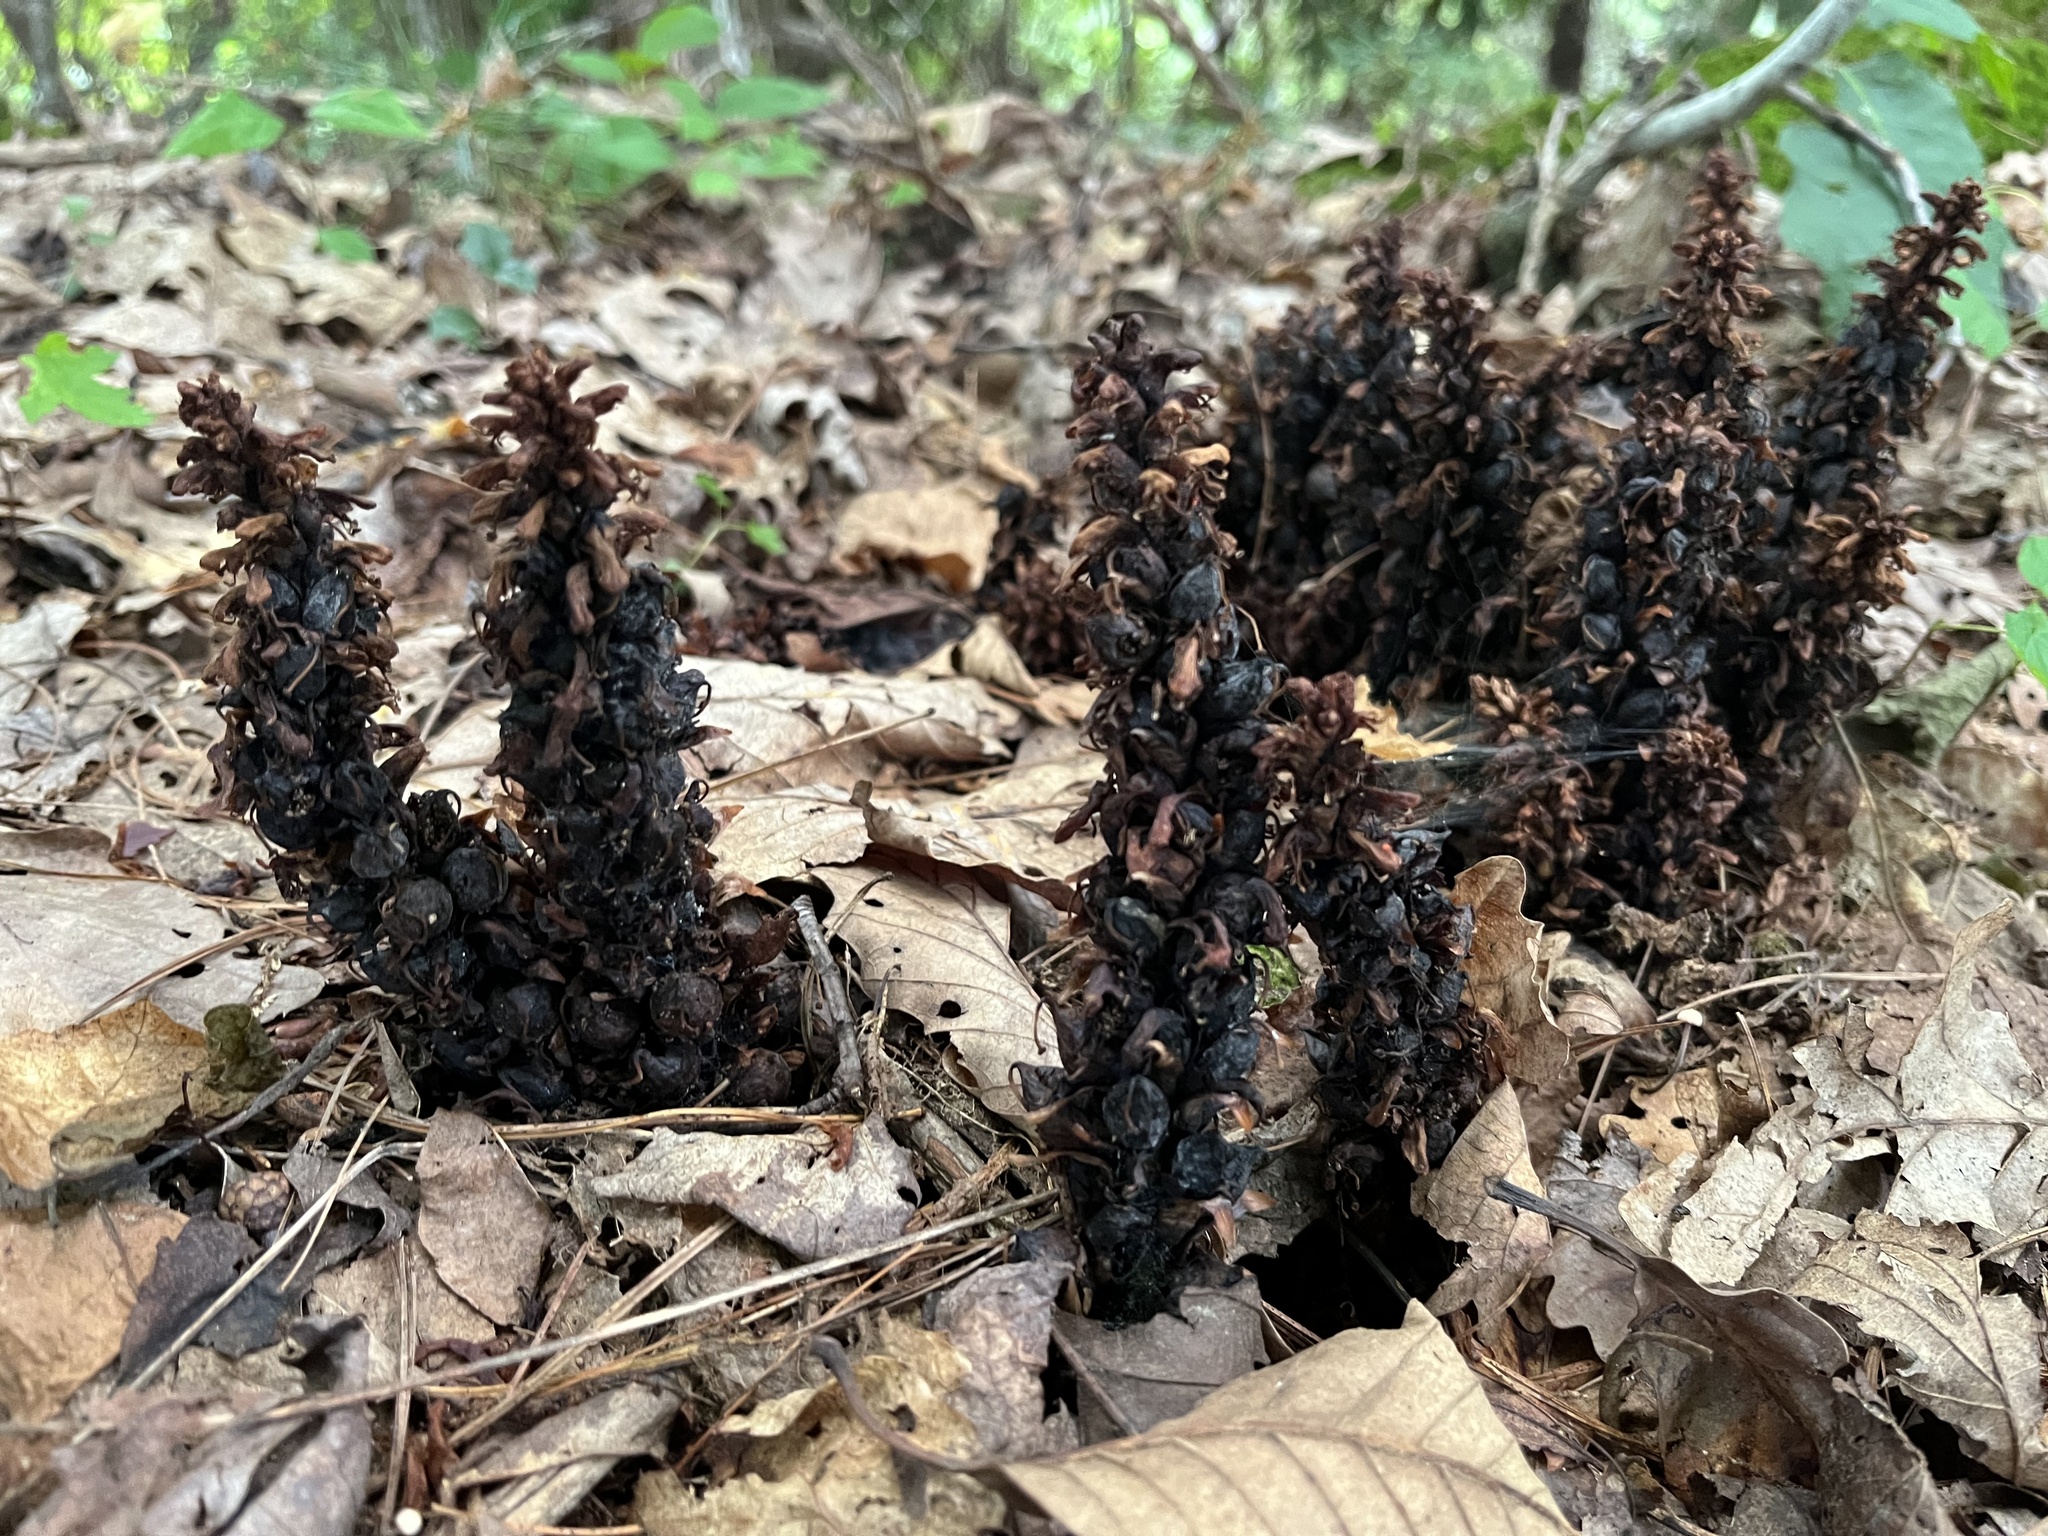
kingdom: Plantae
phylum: Tracheophyta
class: Magnoliopsida
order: Lamiales
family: Orobanchaceae
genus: Conopholis
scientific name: Conopholis americana
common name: American cancer-root
